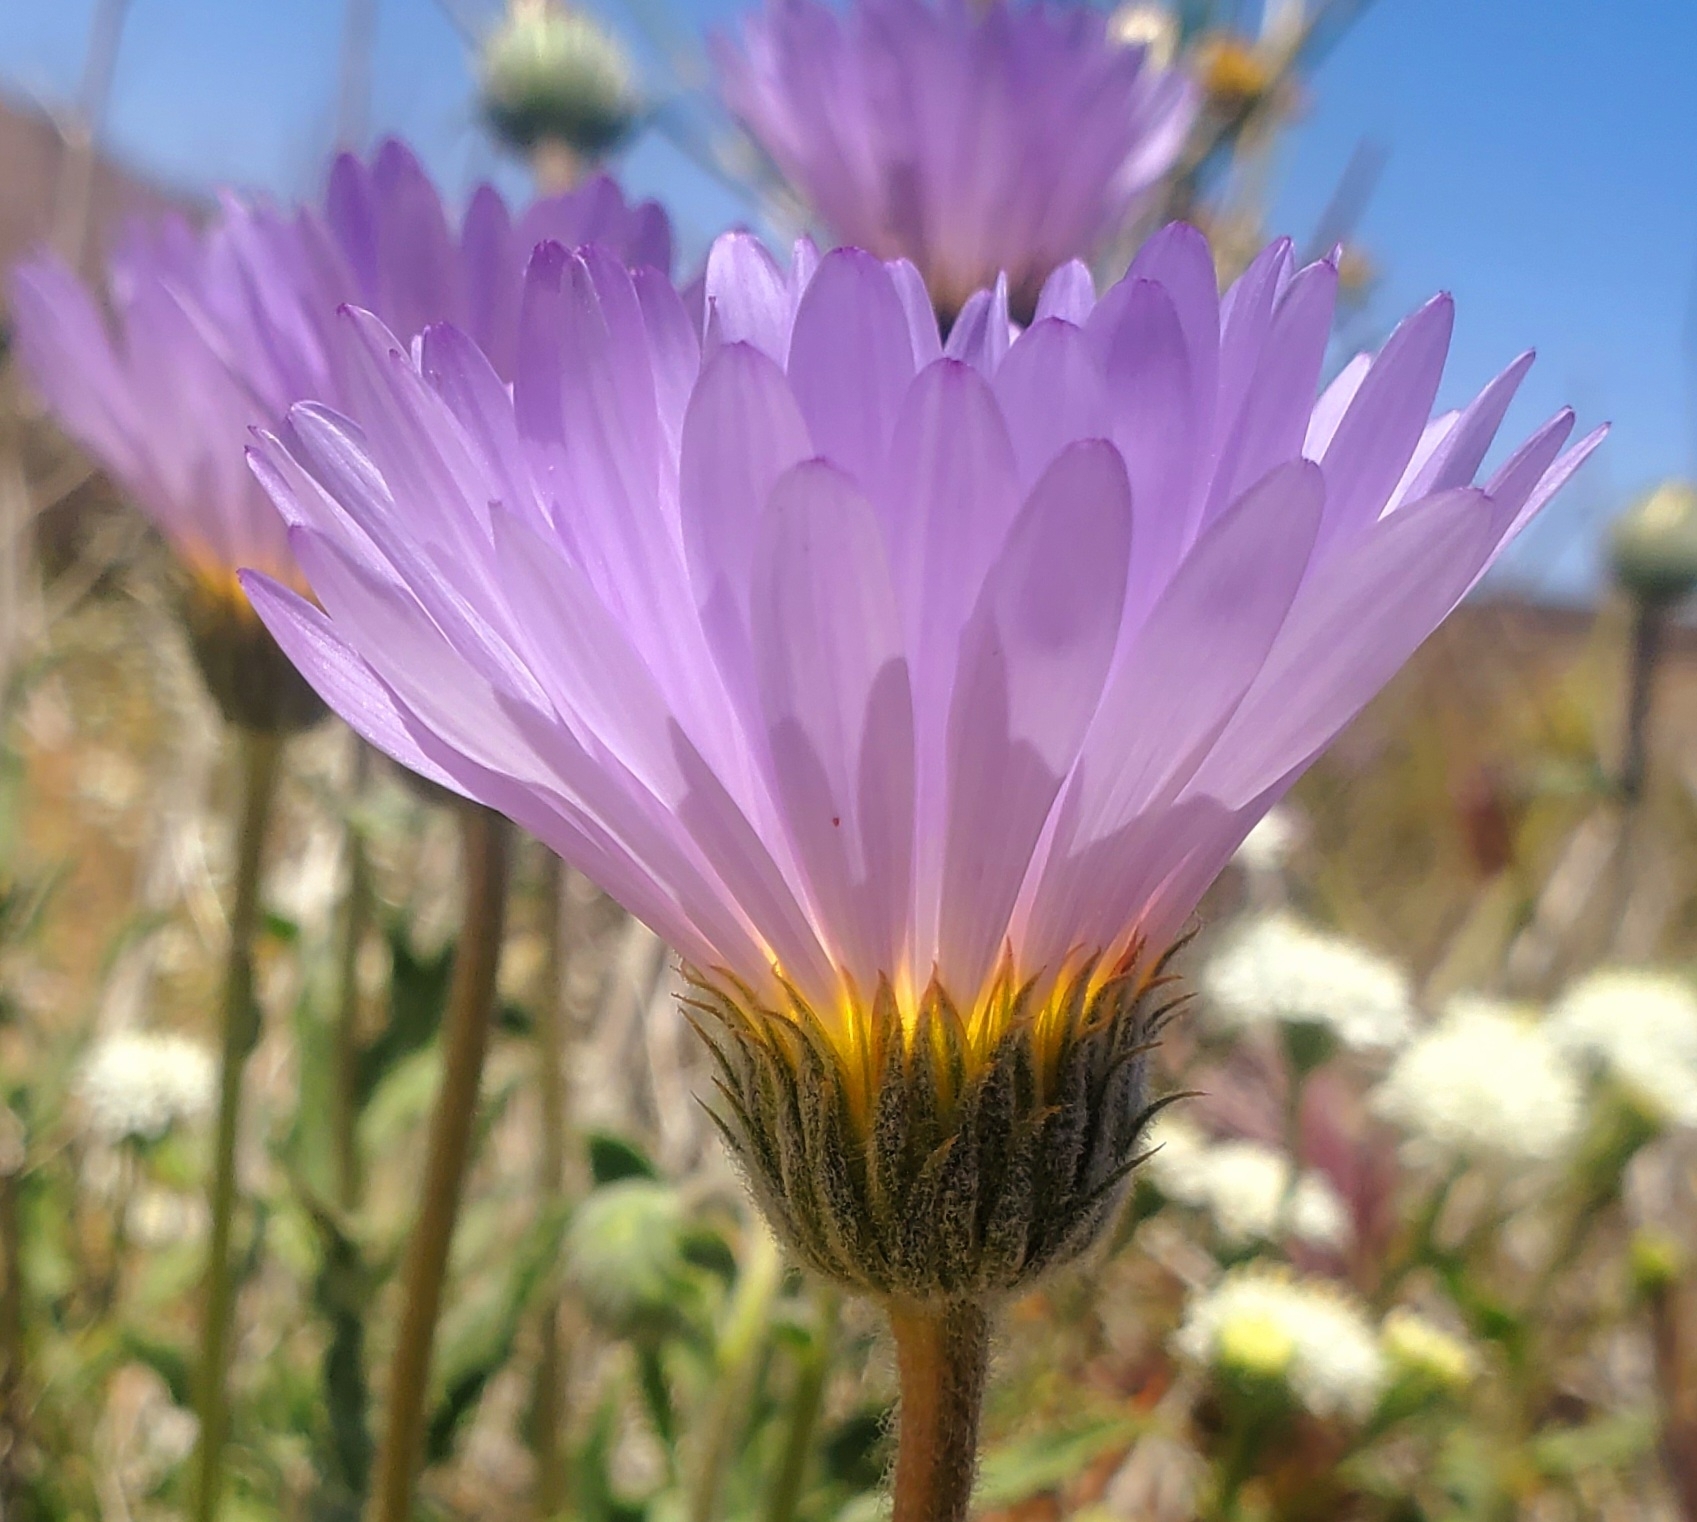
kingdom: Plantae
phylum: Tracheophyta
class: Magnoliopsida
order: Asterales
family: Asteraceae
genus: Xylorhiza
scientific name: Xylorhiza tortifolia
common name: Hurt-leaf woody-aster
